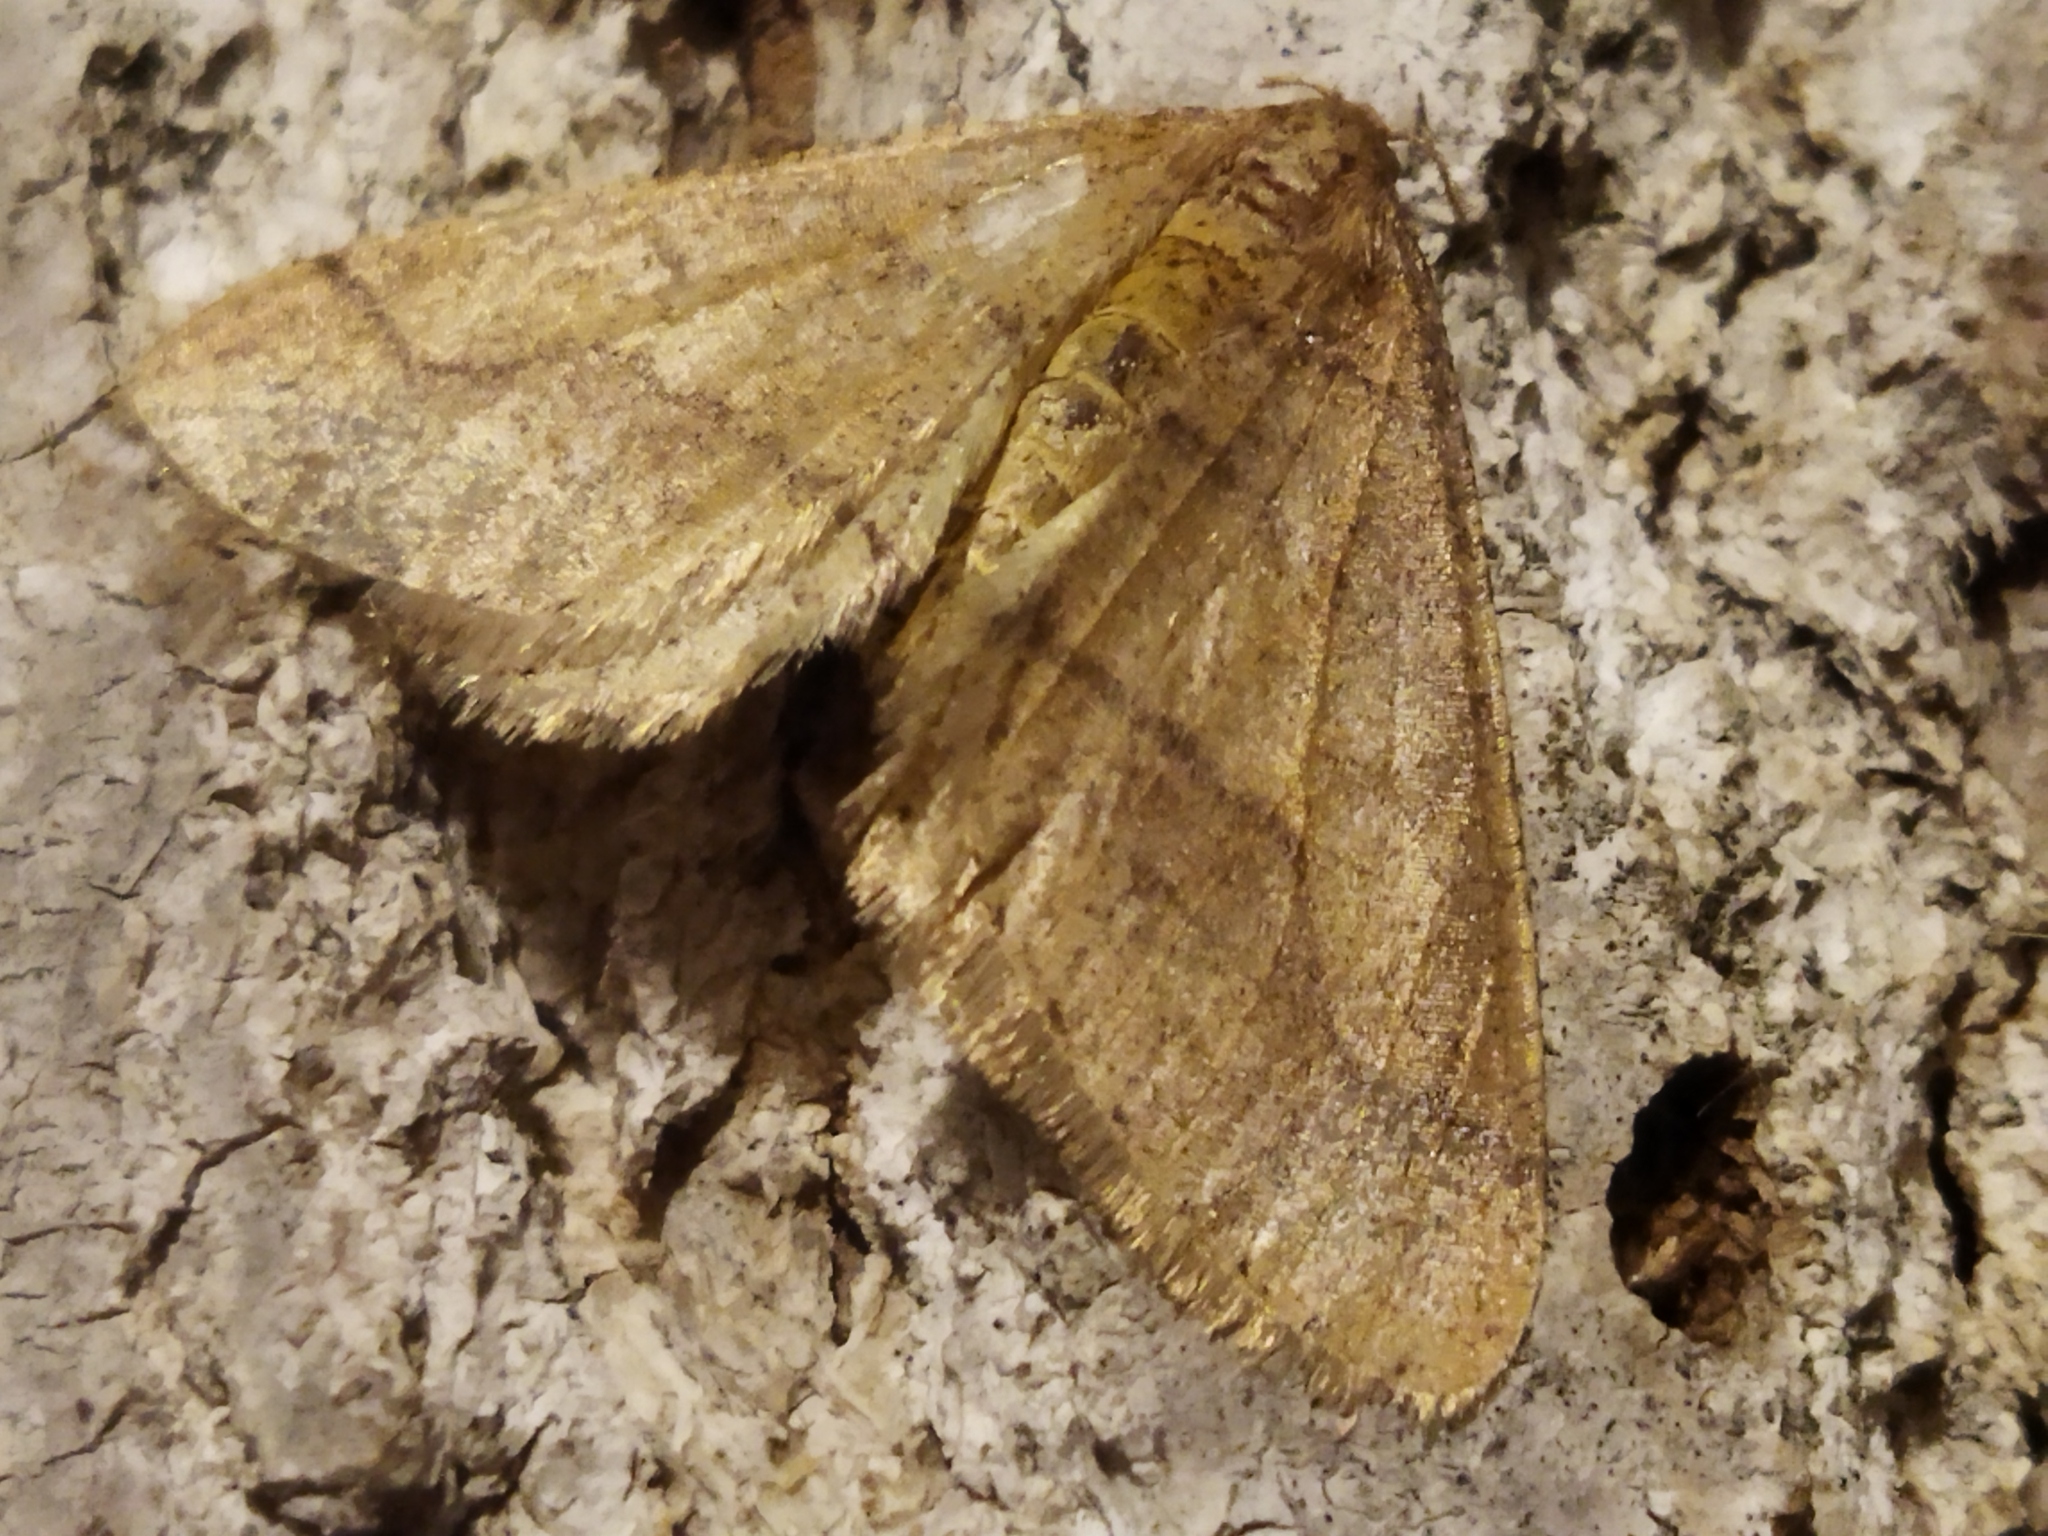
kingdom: Animalia
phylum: Arthropoda
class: Insecta
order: Lepidoptera
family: Geometridae
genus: Agriopis
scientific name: Agriopis marginaria
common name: Dotted border
